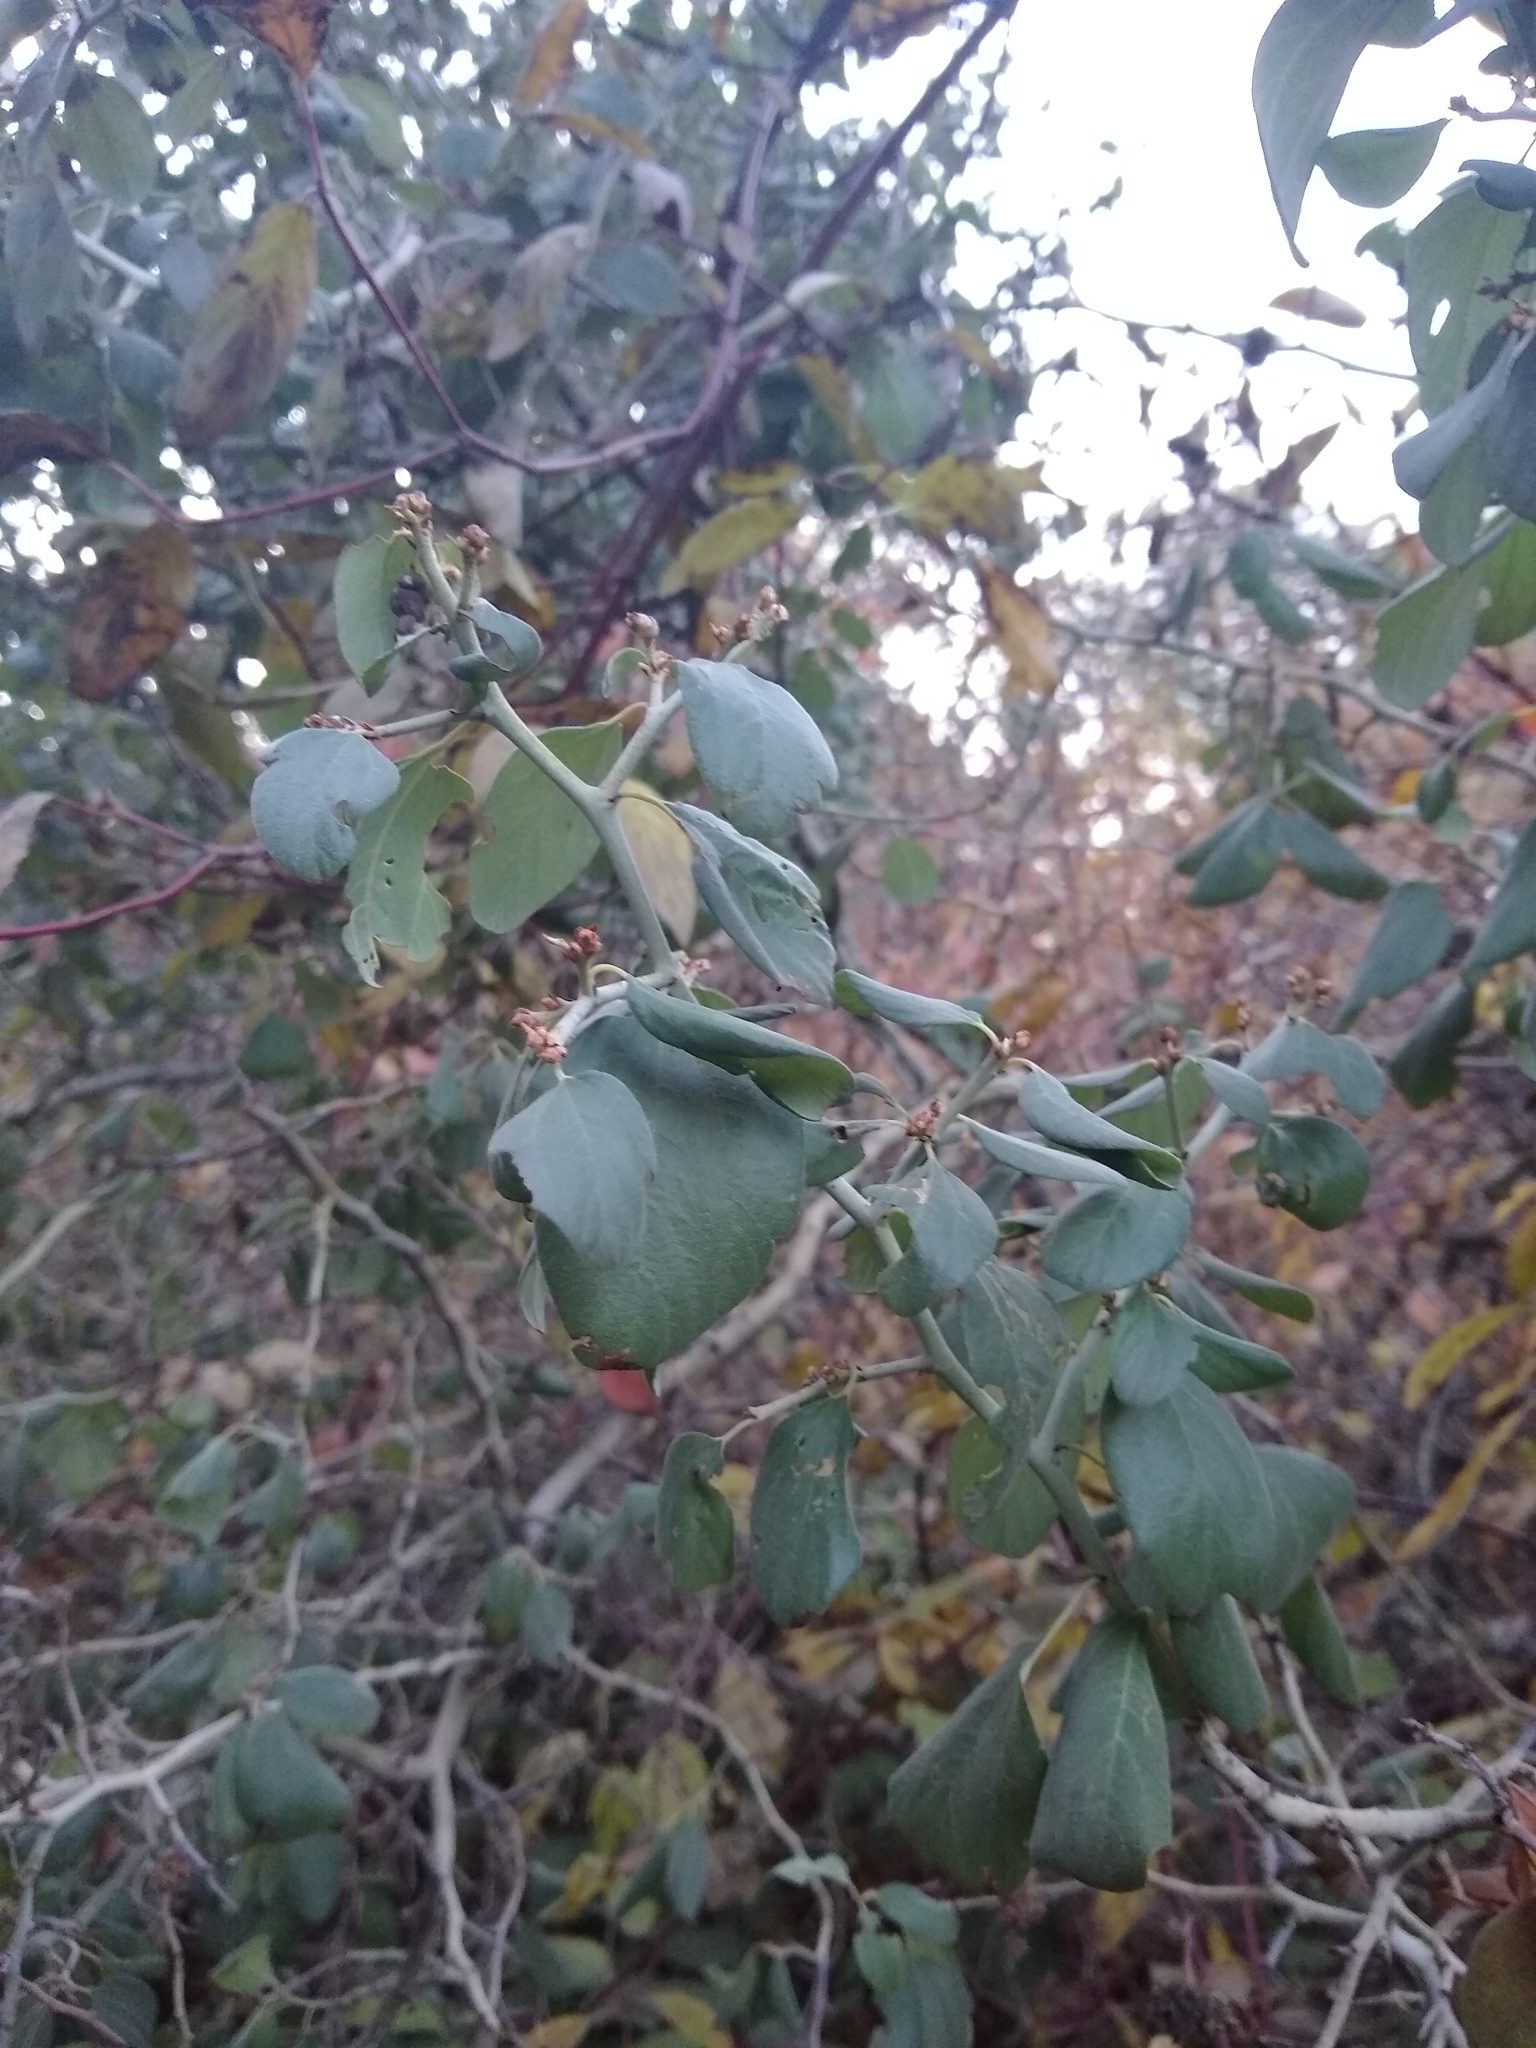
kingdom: Plantae
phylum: Tracheophyta
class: Magnoliopsida
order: Rosales
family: Rhamnaceae
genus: Ceanothus
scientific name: Ceanothus incanus
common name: Coast whitethorn
